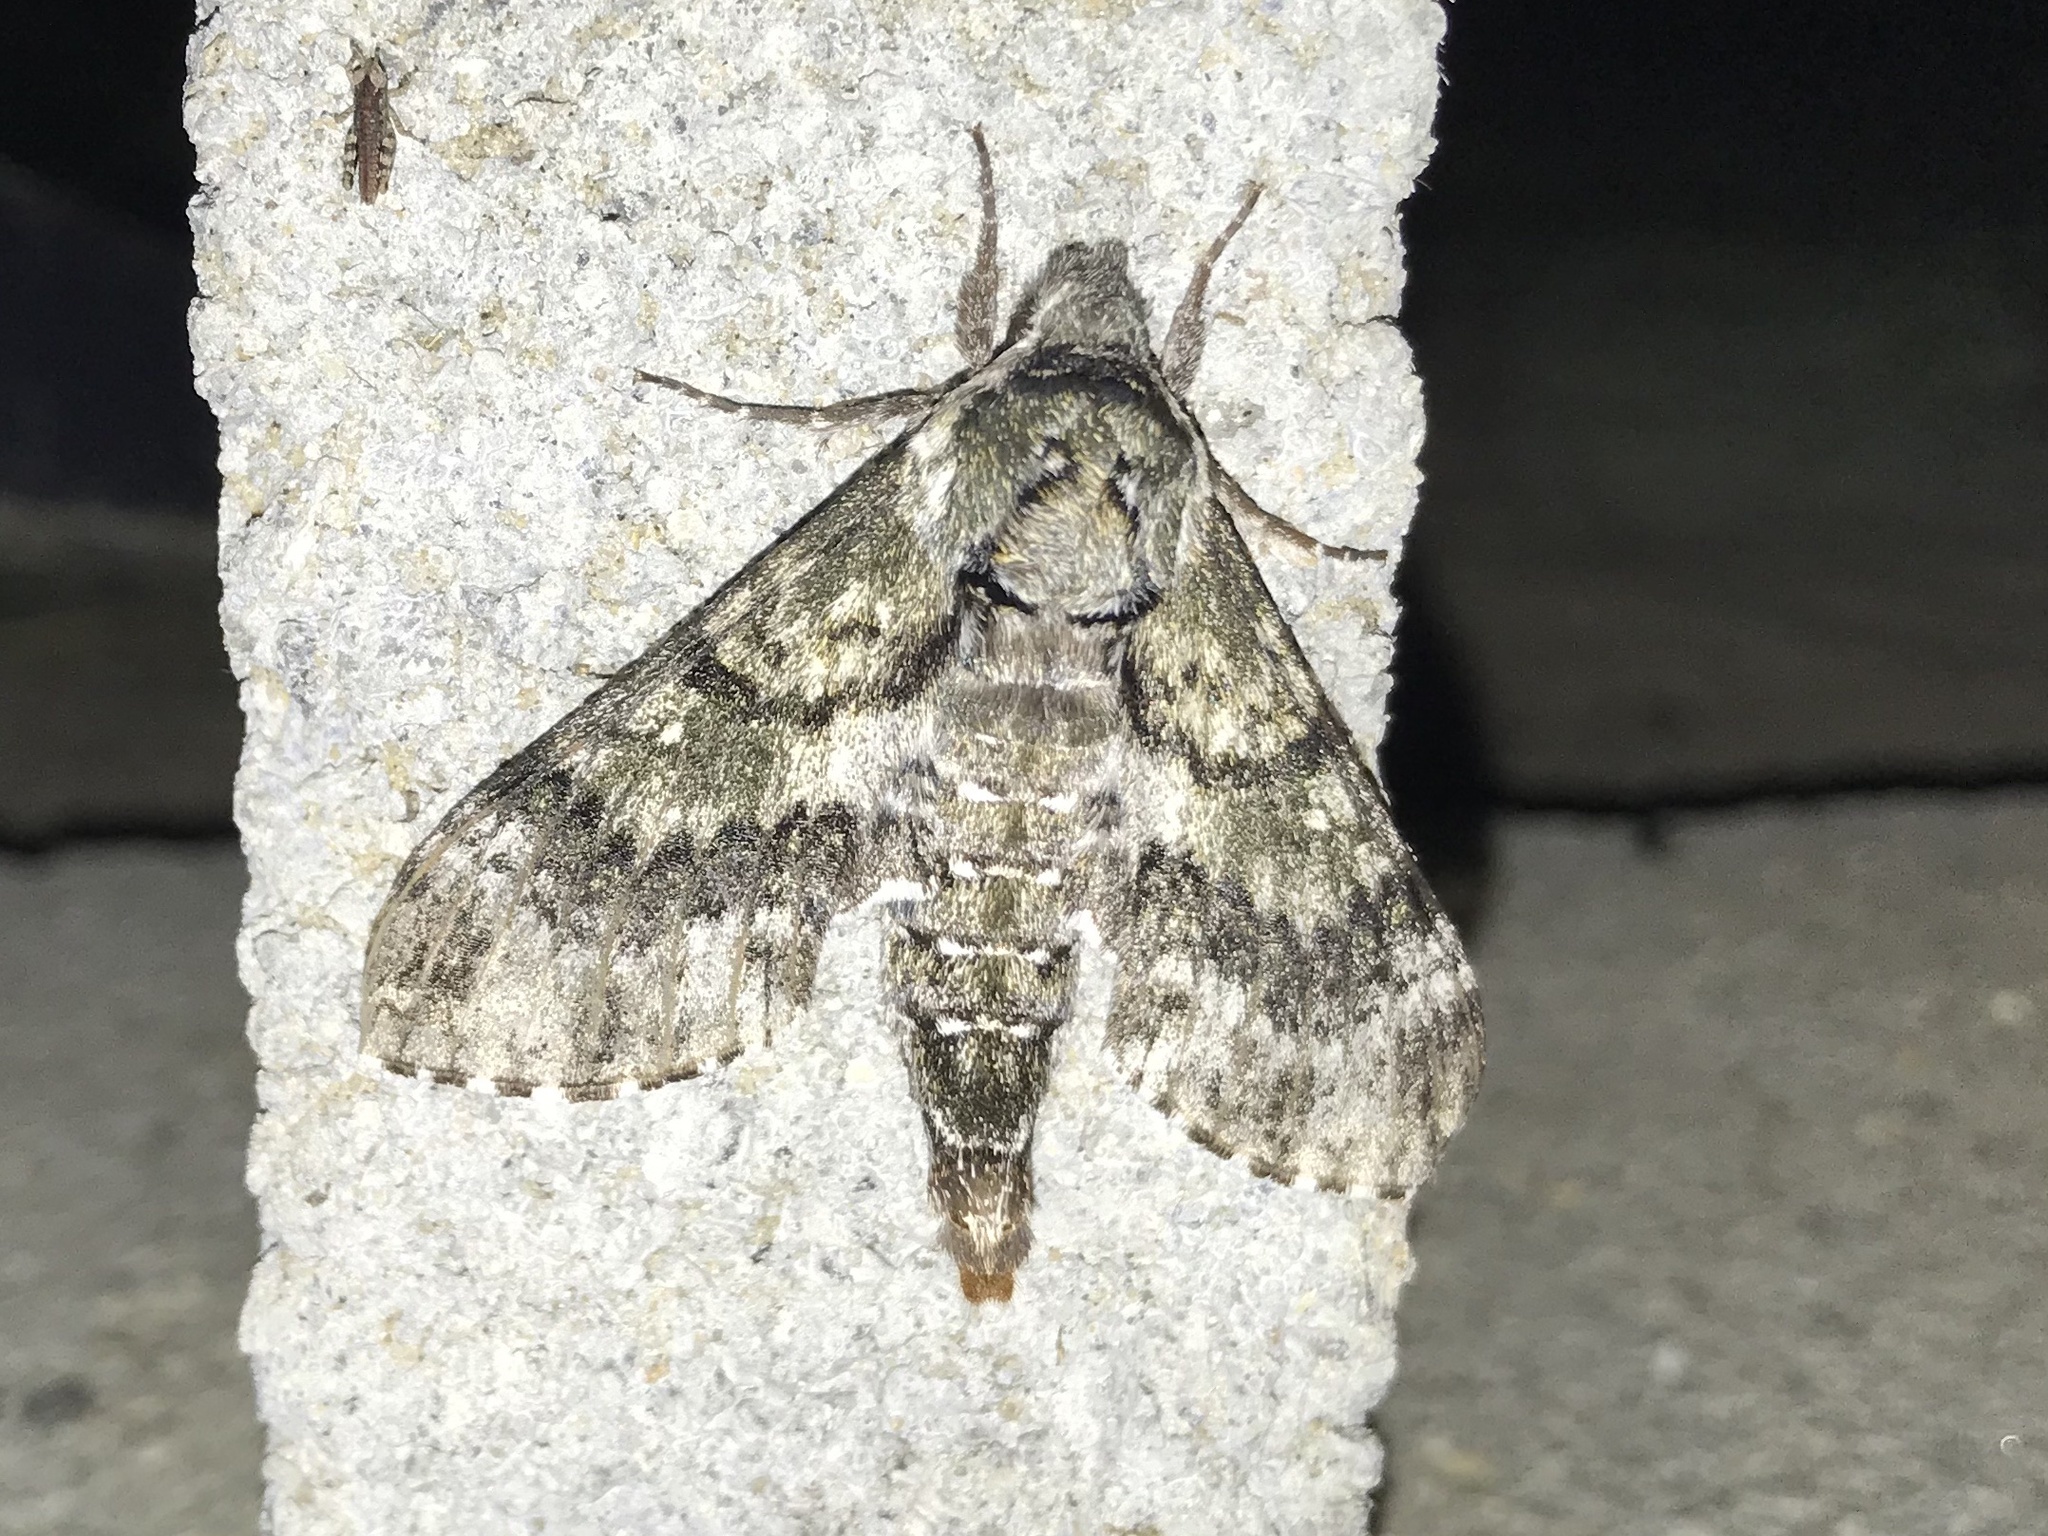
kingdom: Animalia
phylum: Arthropoda
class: Insecta
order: Lepidoptera
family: Sphingidae
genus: Dolba
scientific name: Dolba hyloeus
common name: Pawpaw sphinx
